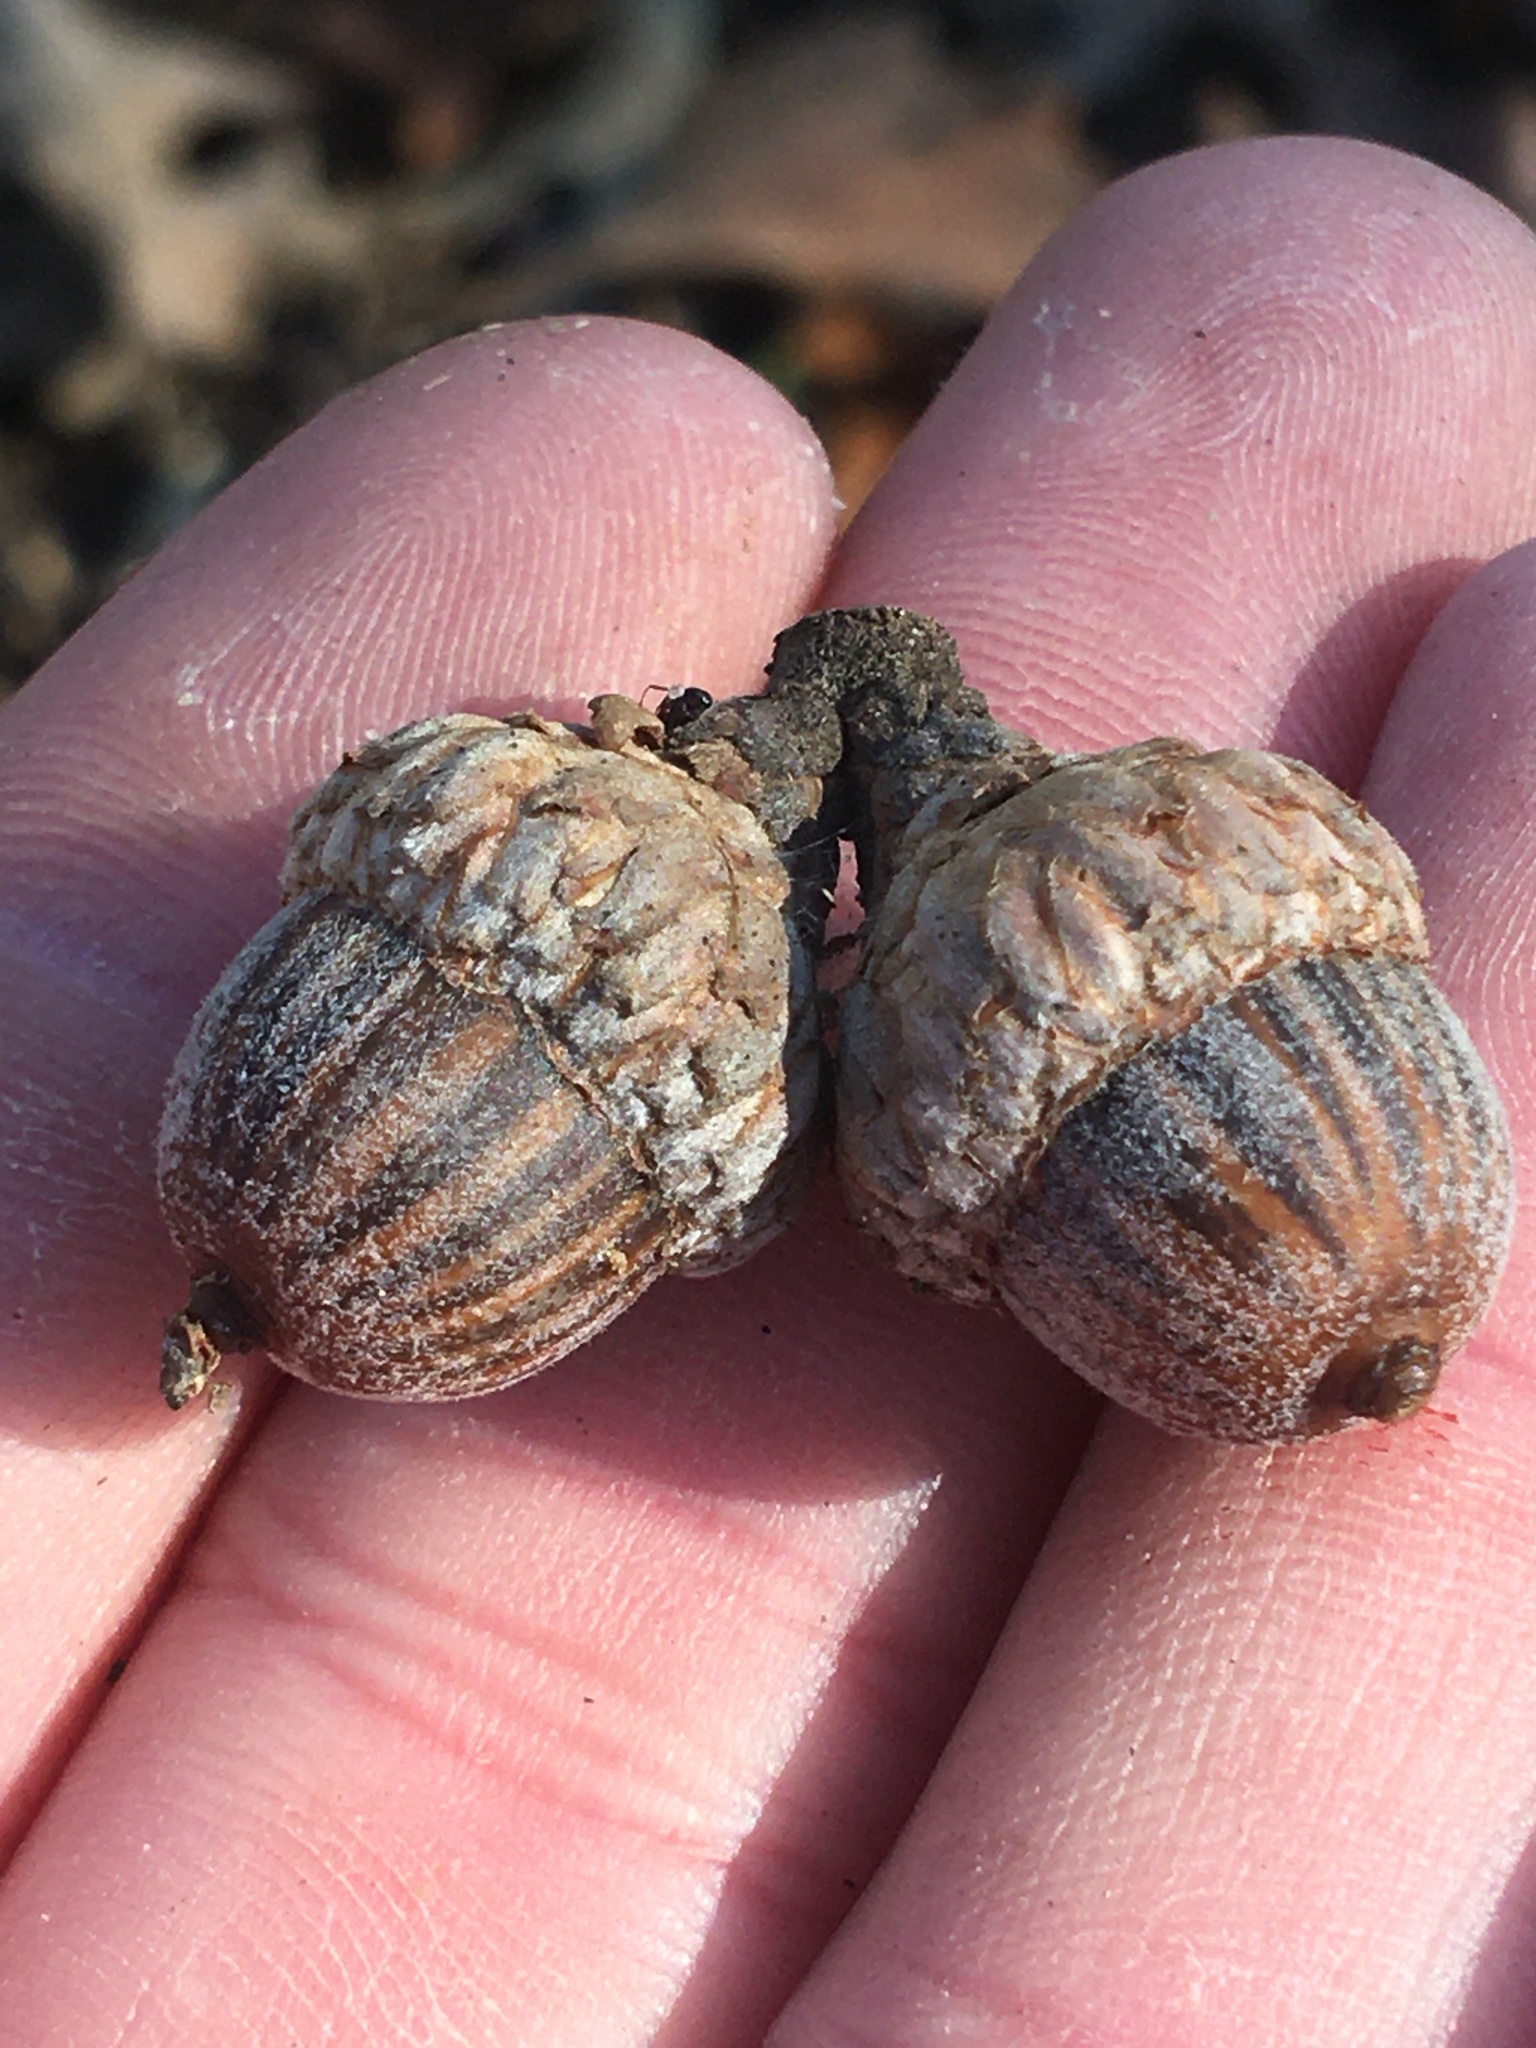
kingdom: Plantae
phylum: Tracheophyta
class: Magnoliopsida
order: Fagales
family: Fagaceae
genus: Quercus
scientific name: Quercus palustris
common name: Pin oak
